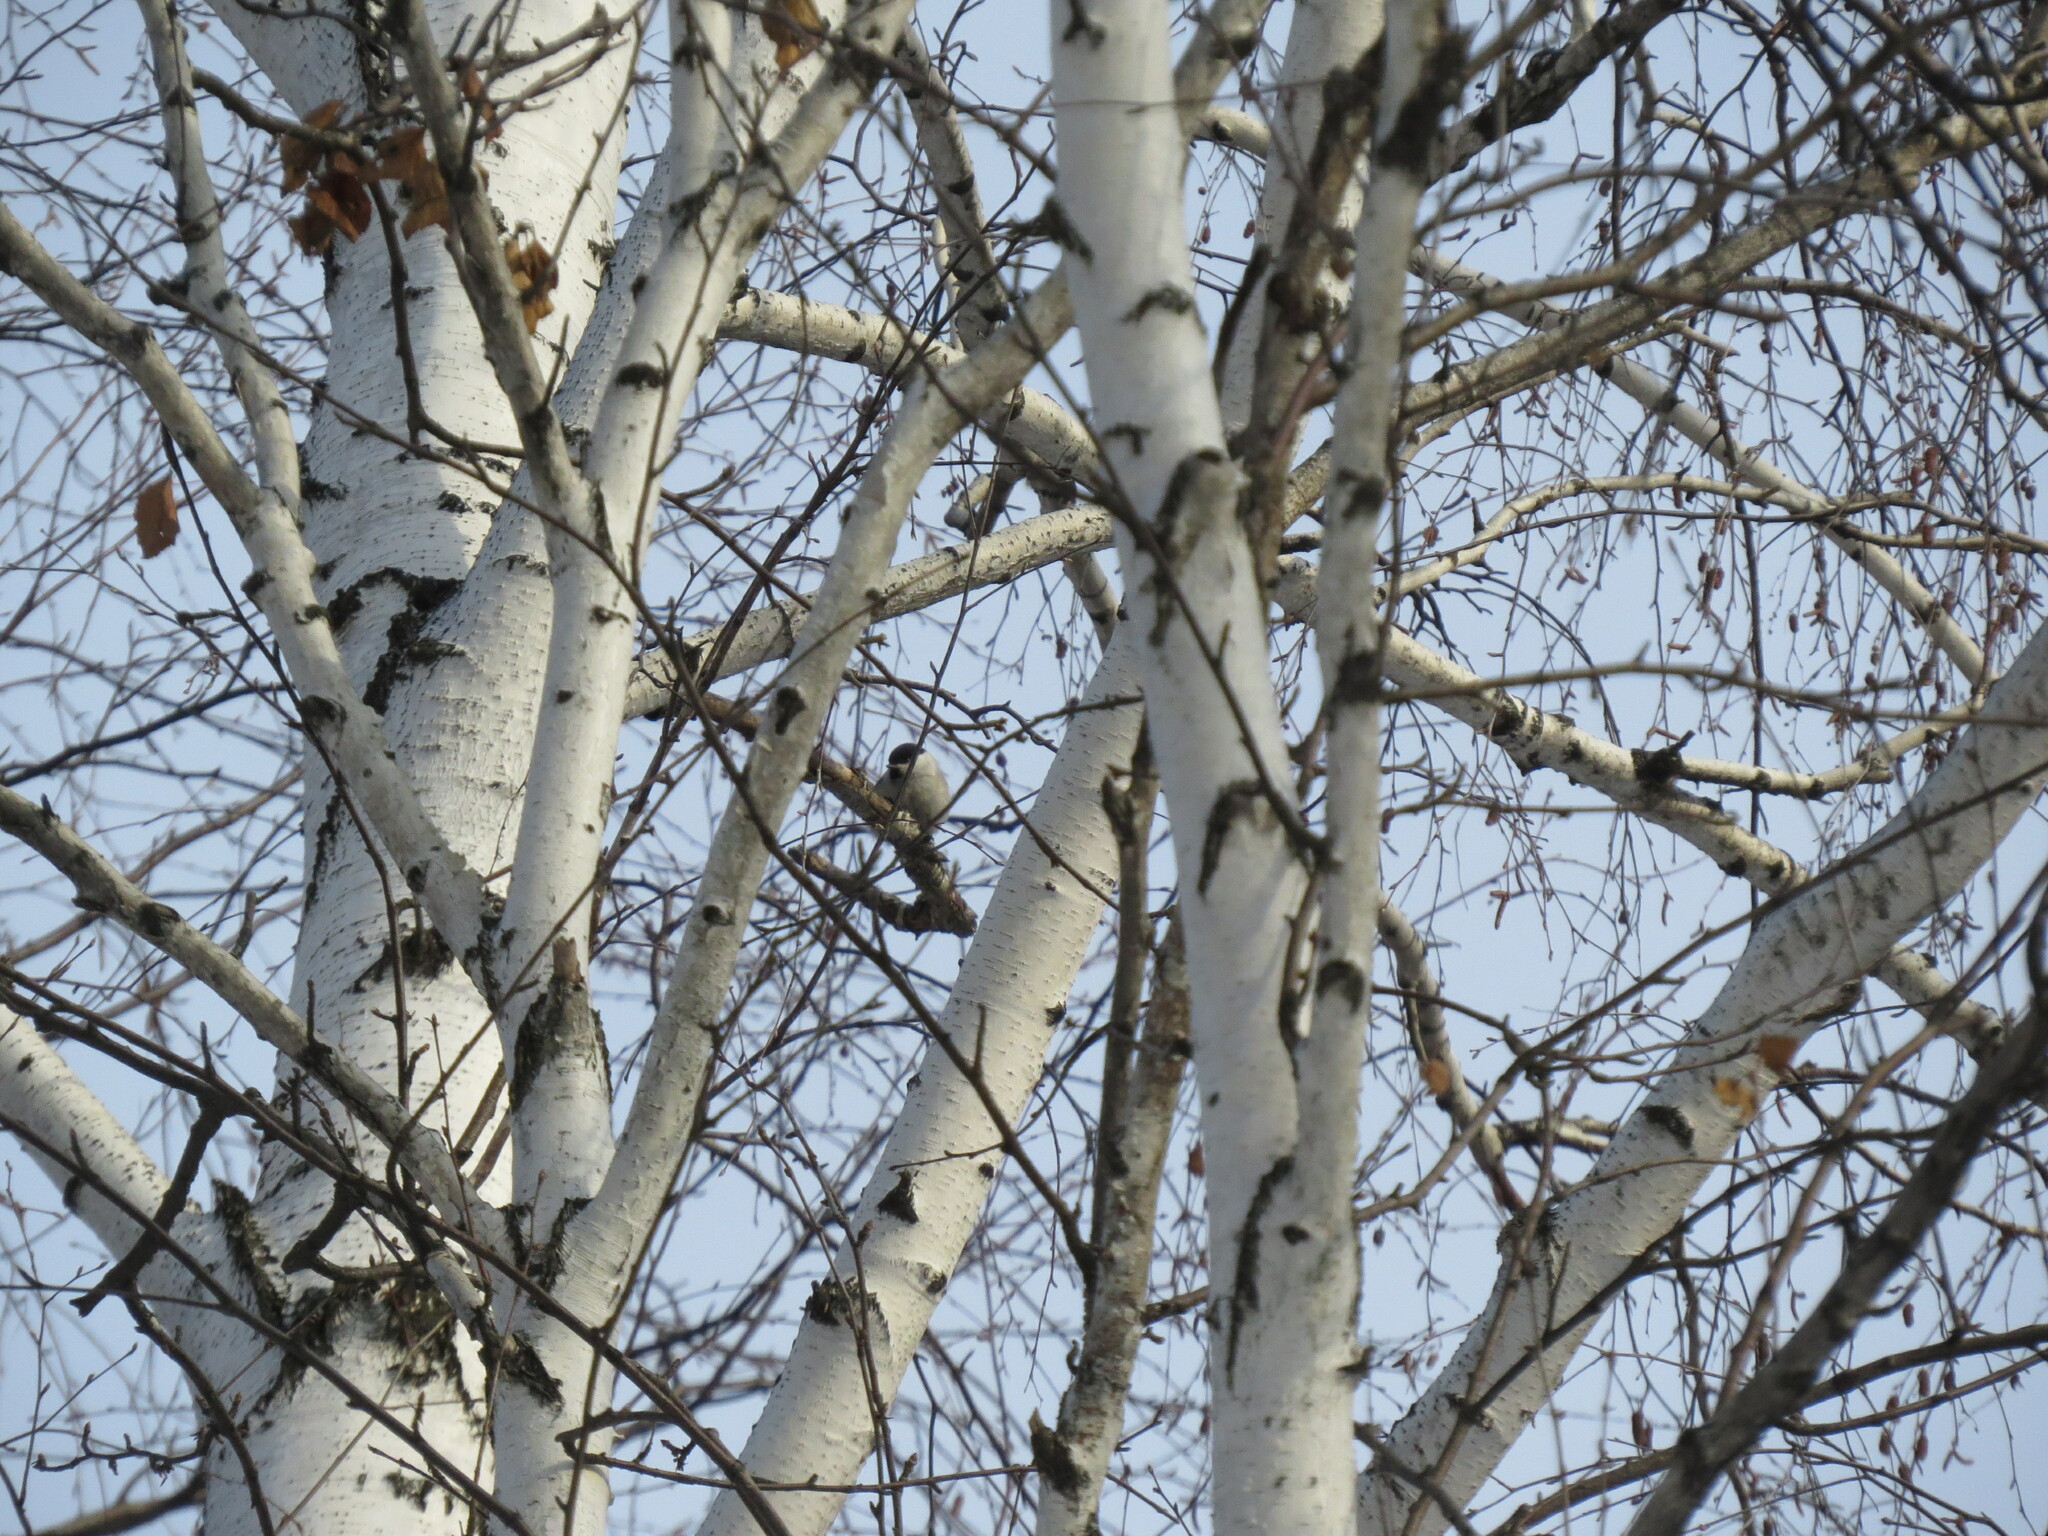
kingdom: Animalia
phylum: Chordata
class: Aves
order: Passeriformes
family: Paridae
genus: Poecile
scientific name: Poecile montanus
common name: Willow tit
